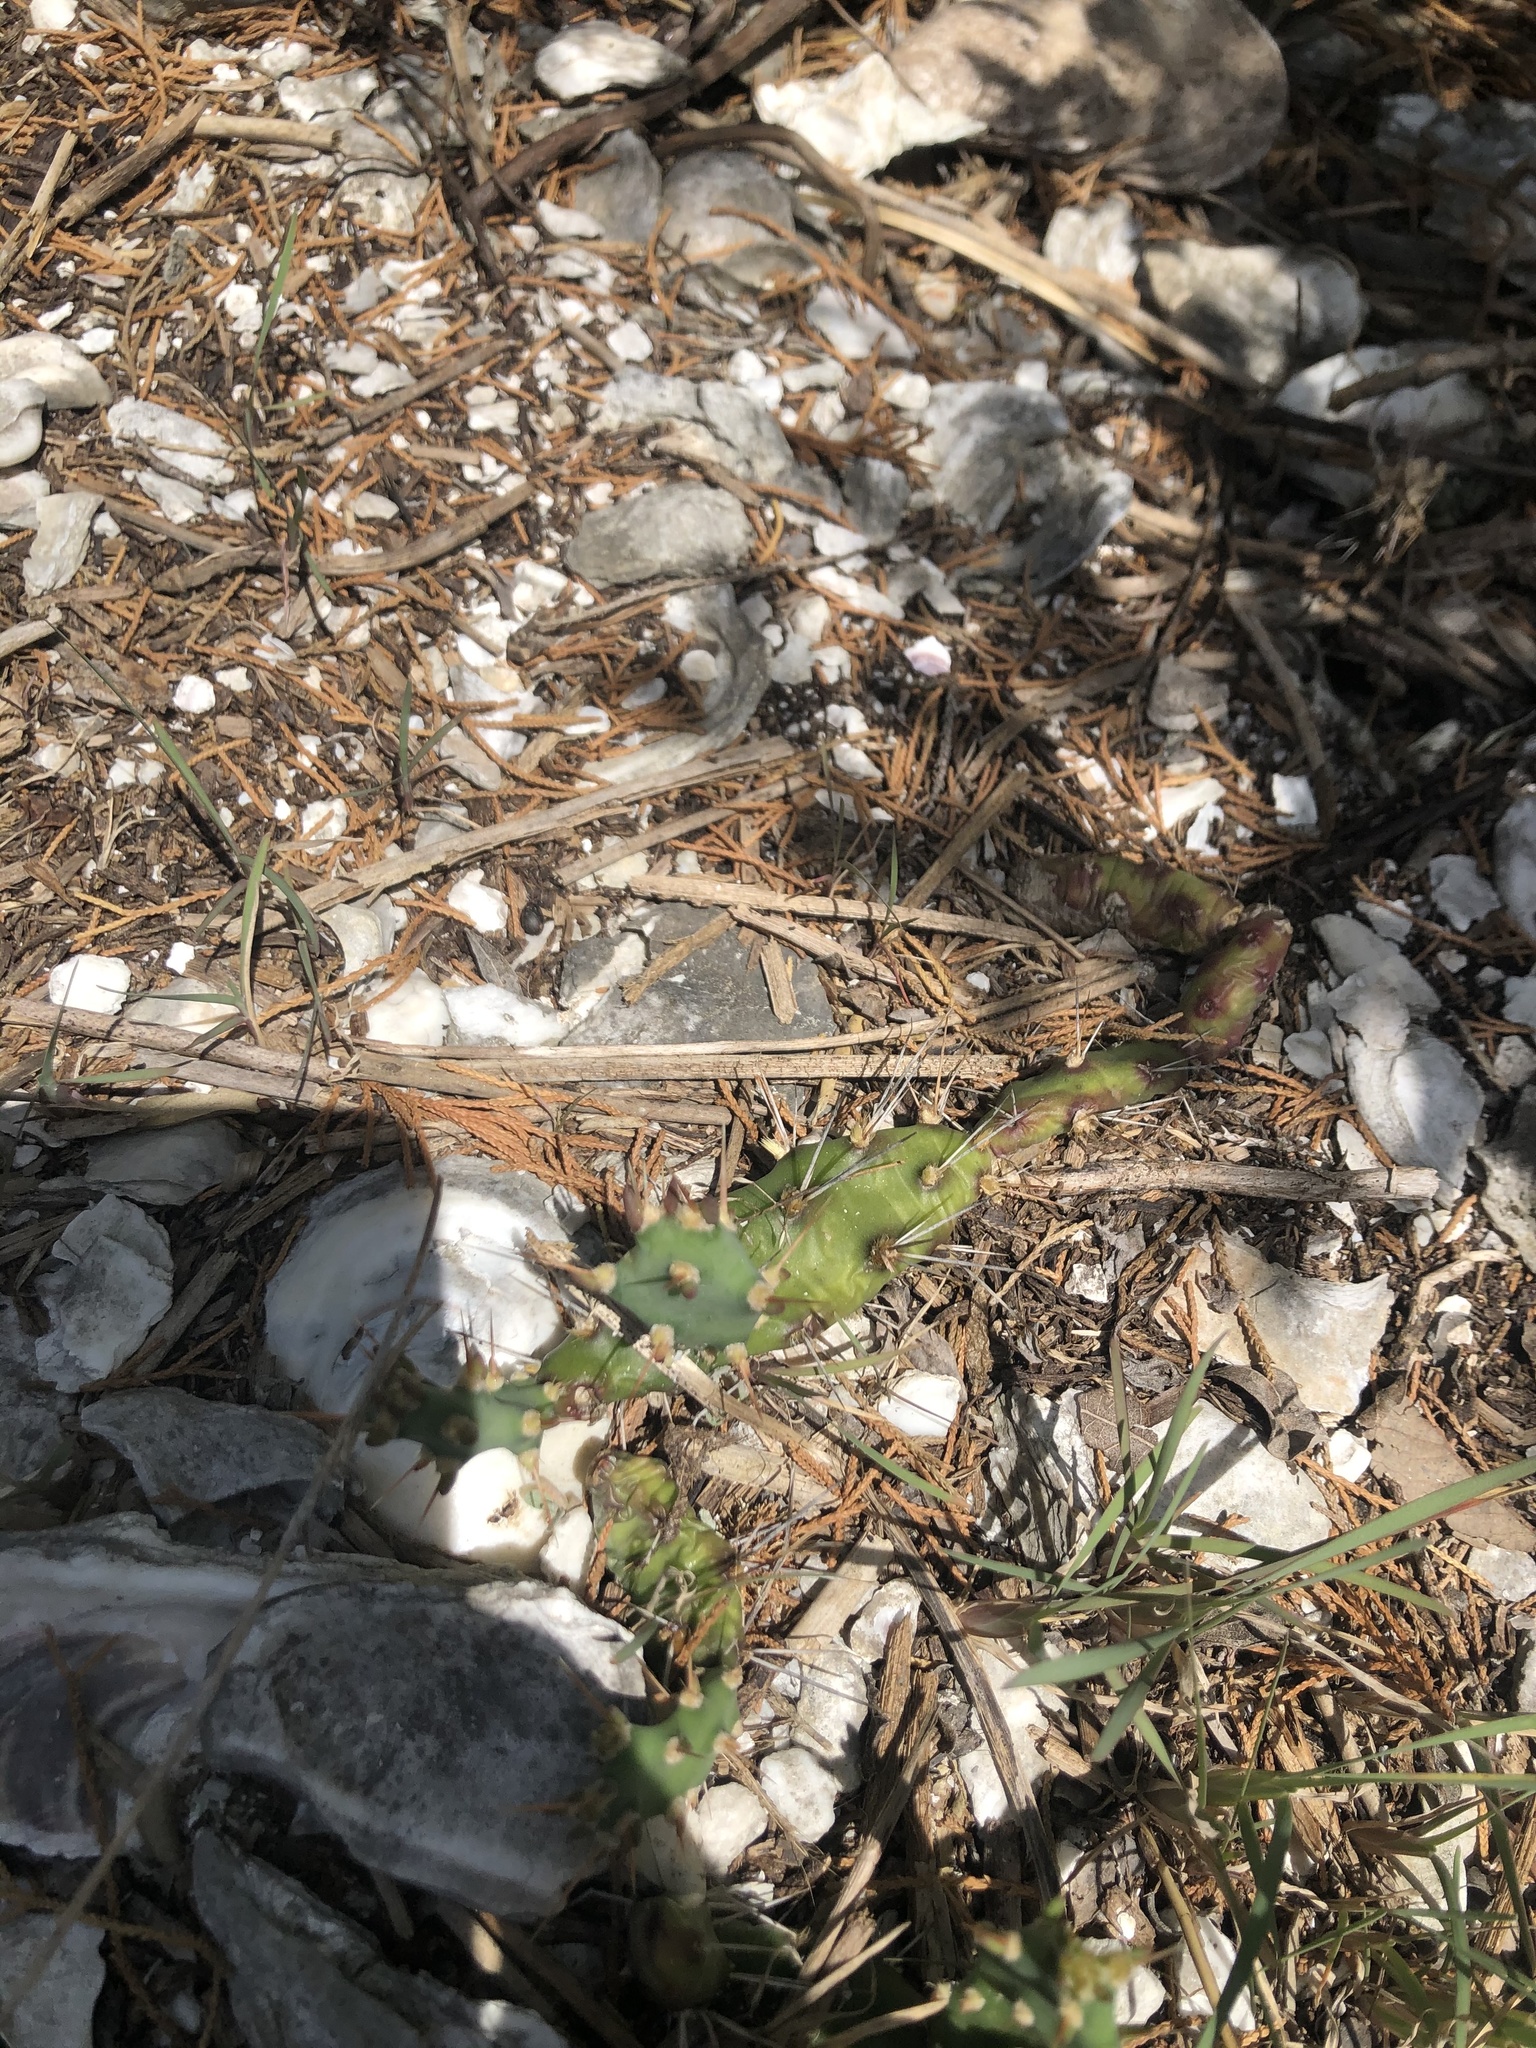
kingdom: Plantae
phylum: Tracheophyta
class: Magnoliopsida
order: Caryophyllales
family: Cactaceae
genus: Opuntia
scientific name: Opuntia drummondii
